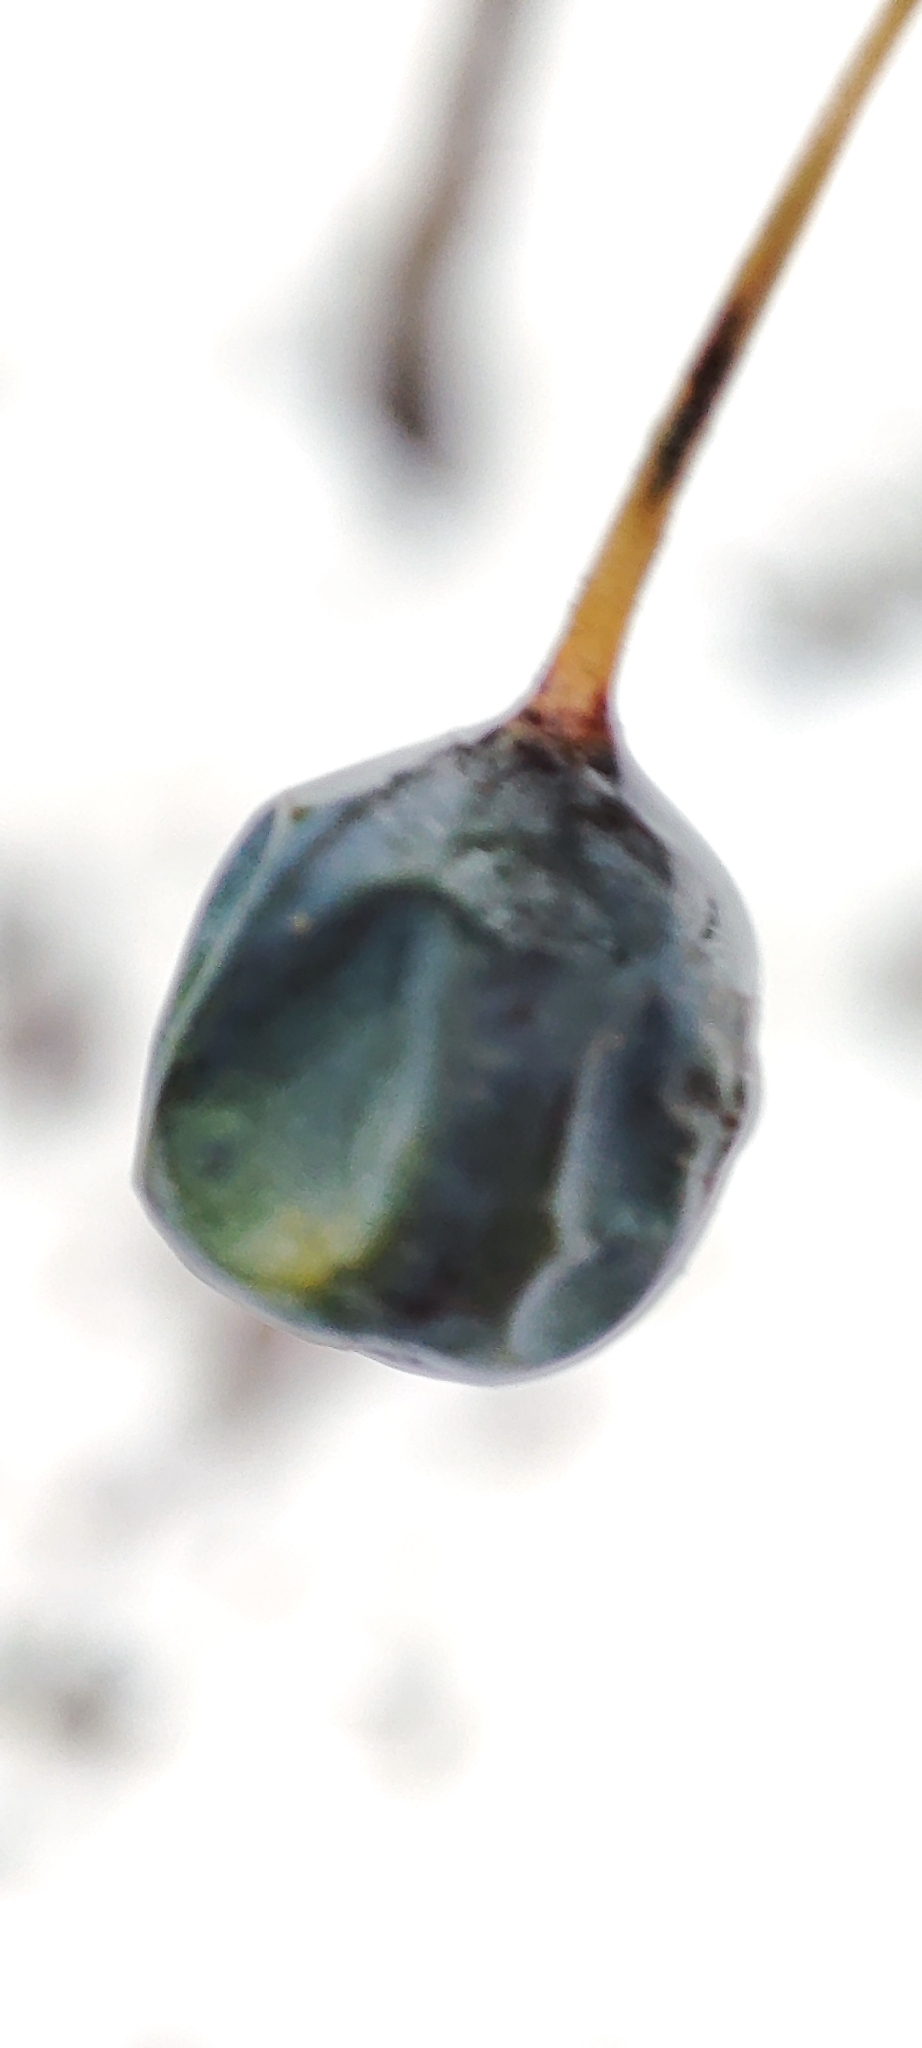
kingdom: Plantae
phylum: Tracheophyta
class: Liliopsida
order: Asparagales
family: Asparagaceae
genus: Polygonatum
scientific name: Polygonatum odoratum
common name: Angular solomon's-seal
